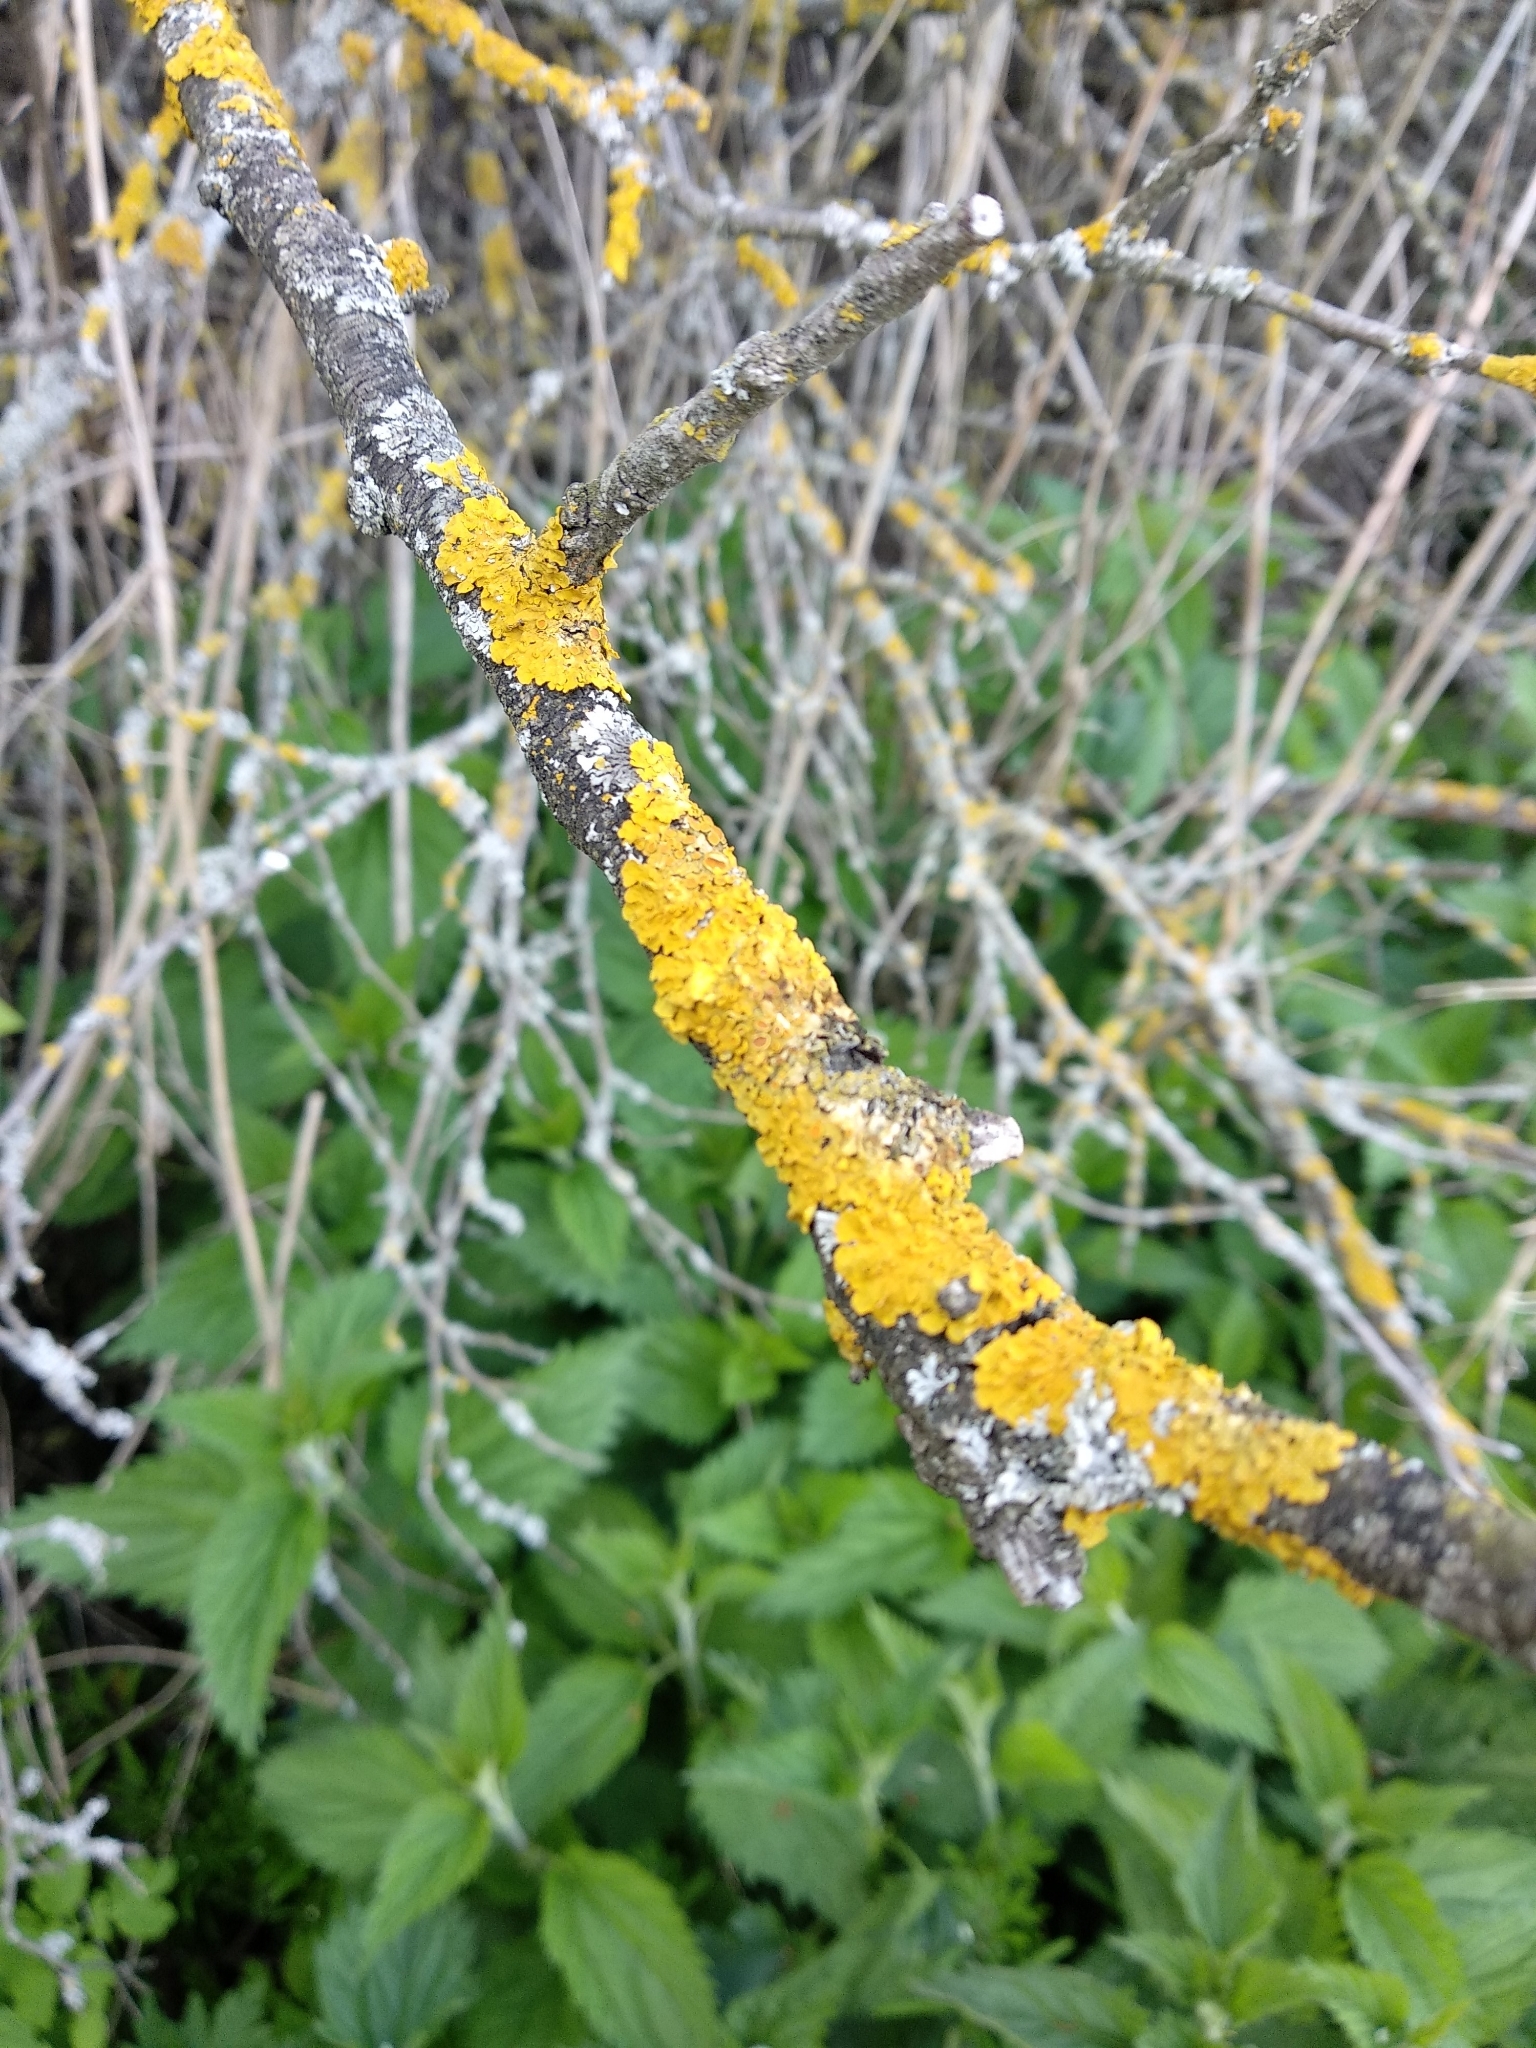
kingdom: Fungi
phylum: Ascomycota
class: Lecanoromycetes
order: Teloschistales
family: Teloschistaceae
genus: Xanthoria
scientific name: Xanthoria parietina
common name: Common orange lichen
